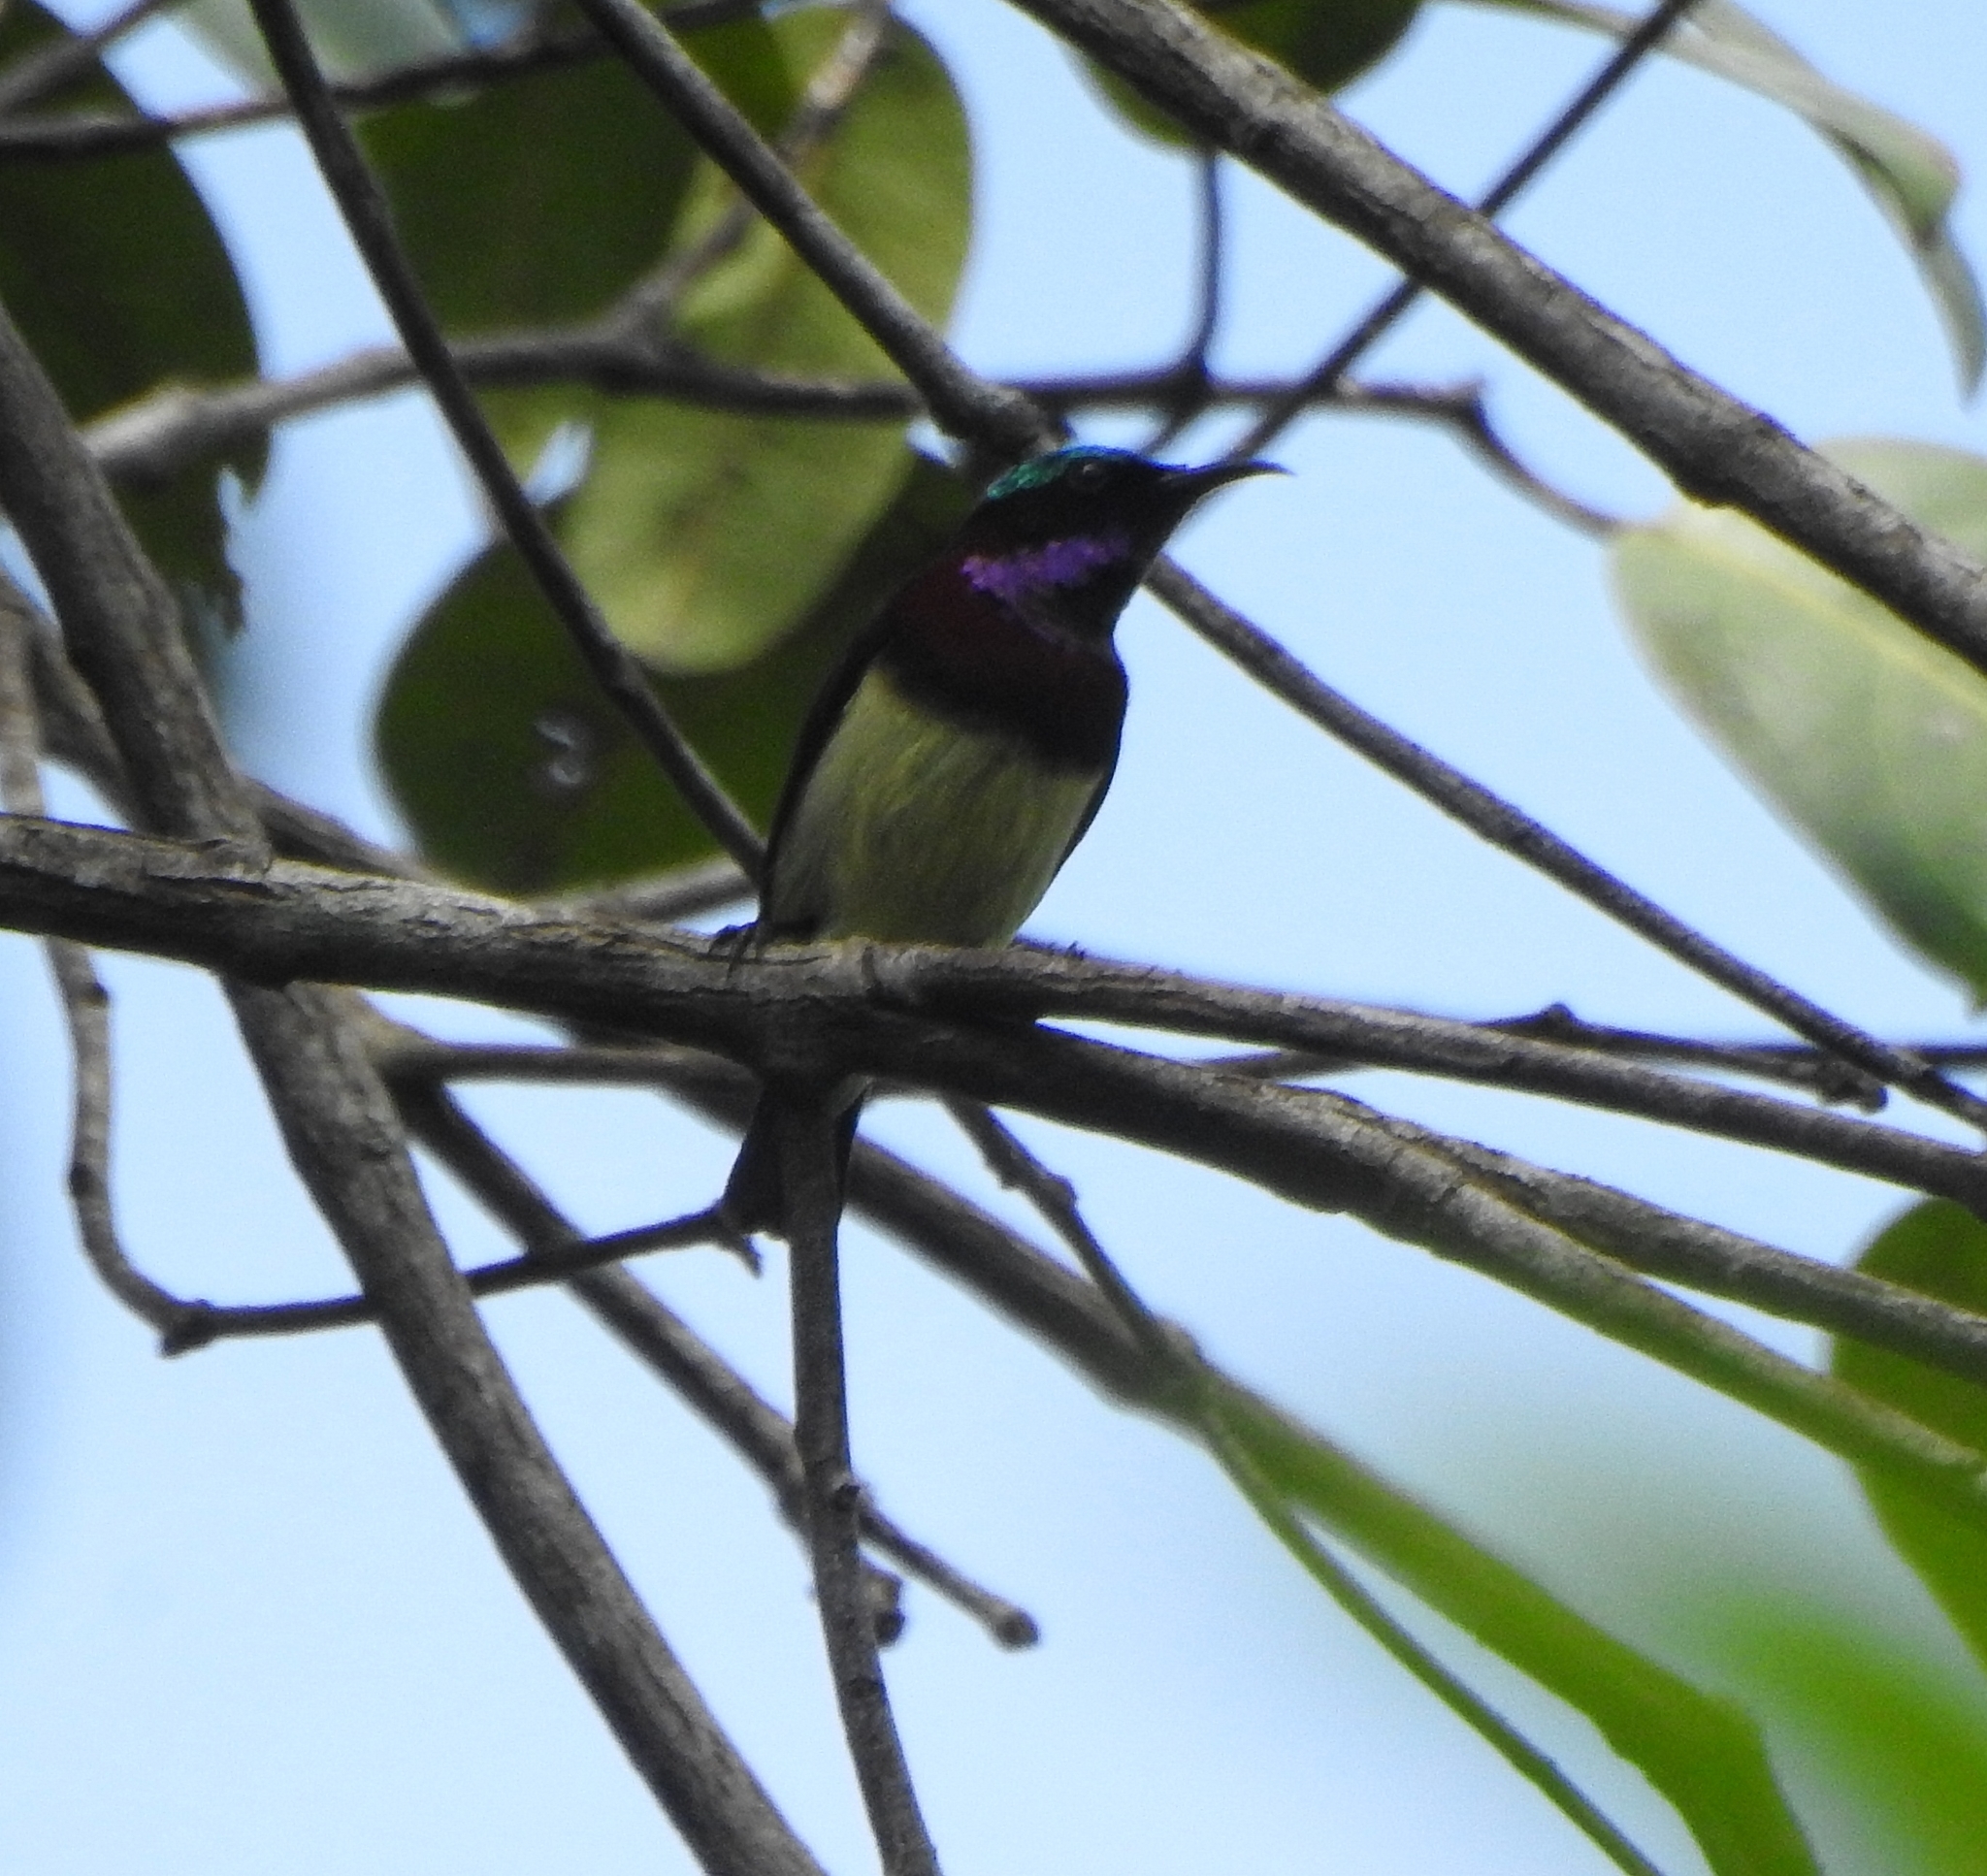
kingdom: Animalia
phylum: Chordata
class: Aves
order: Passeriformes
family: Nectariniidae
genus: Leptocoma
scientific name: Leptocoma minima
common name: Crimson-backed sunbird
